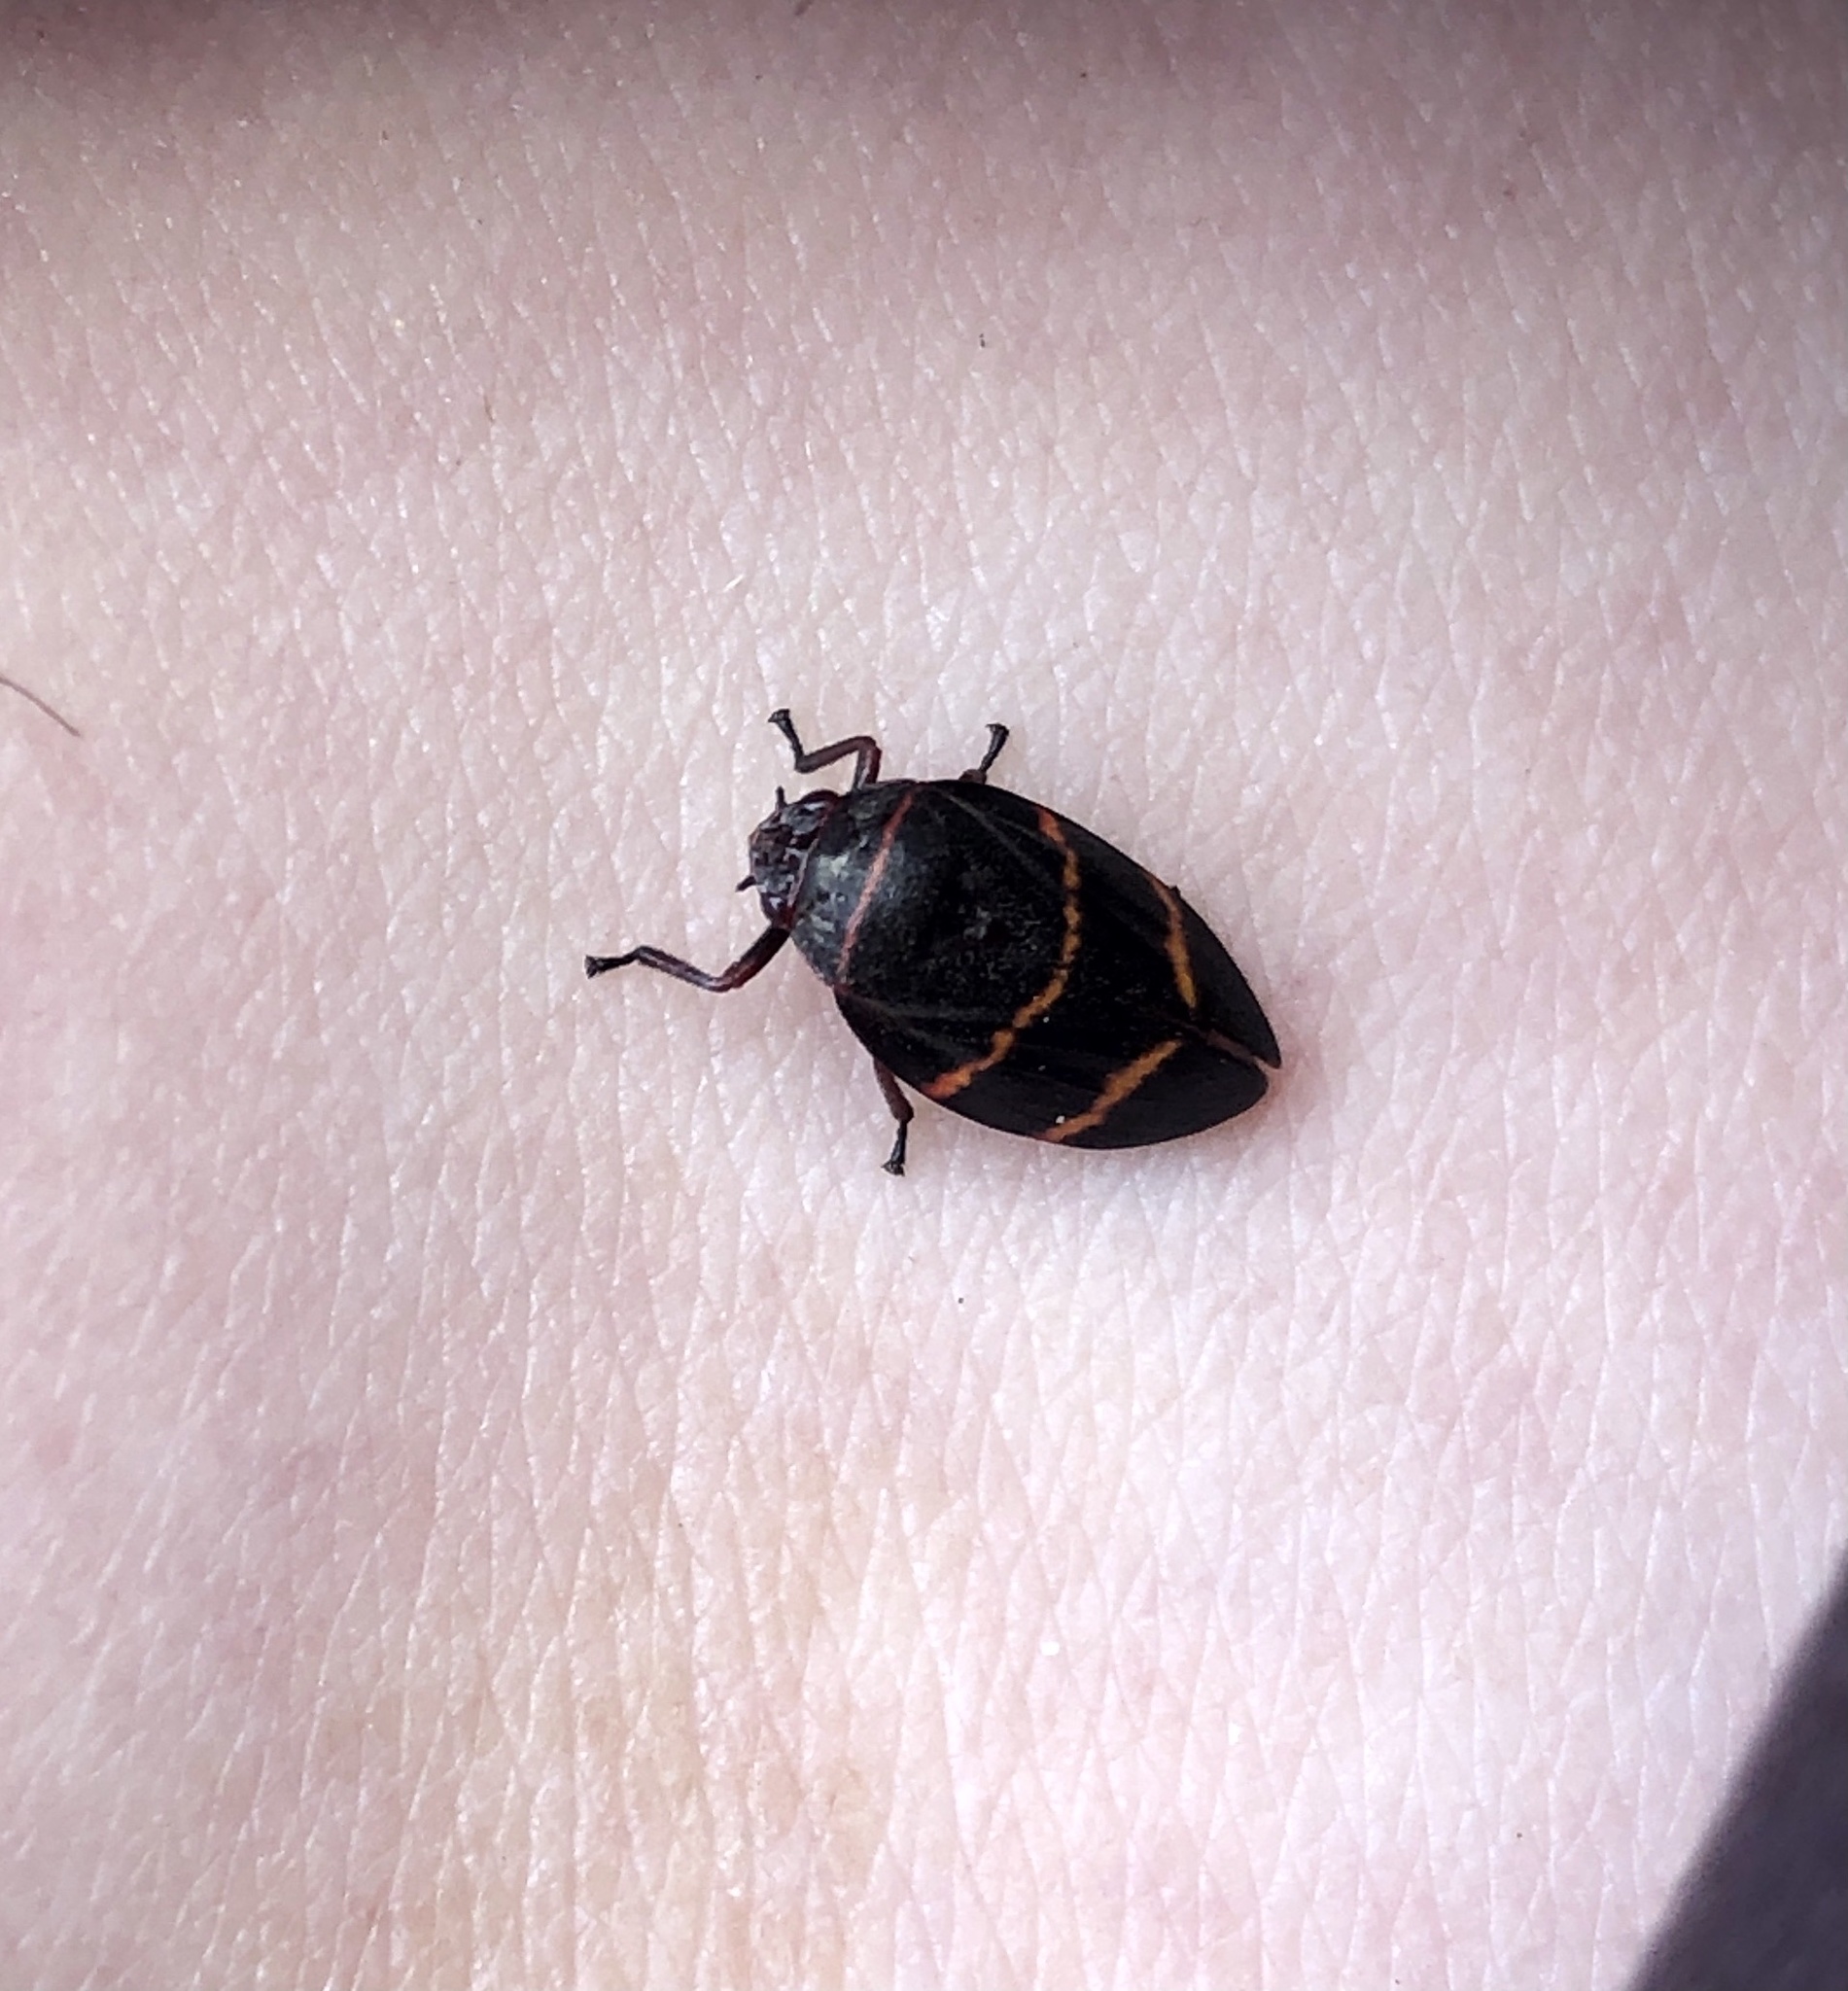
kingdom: Animalia
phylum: Arthropoda
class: Insecta
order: Hemiptera
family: Cercopidae
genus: Prosapia
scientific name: Prosapia bicincta
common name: Twolined spittlebug
